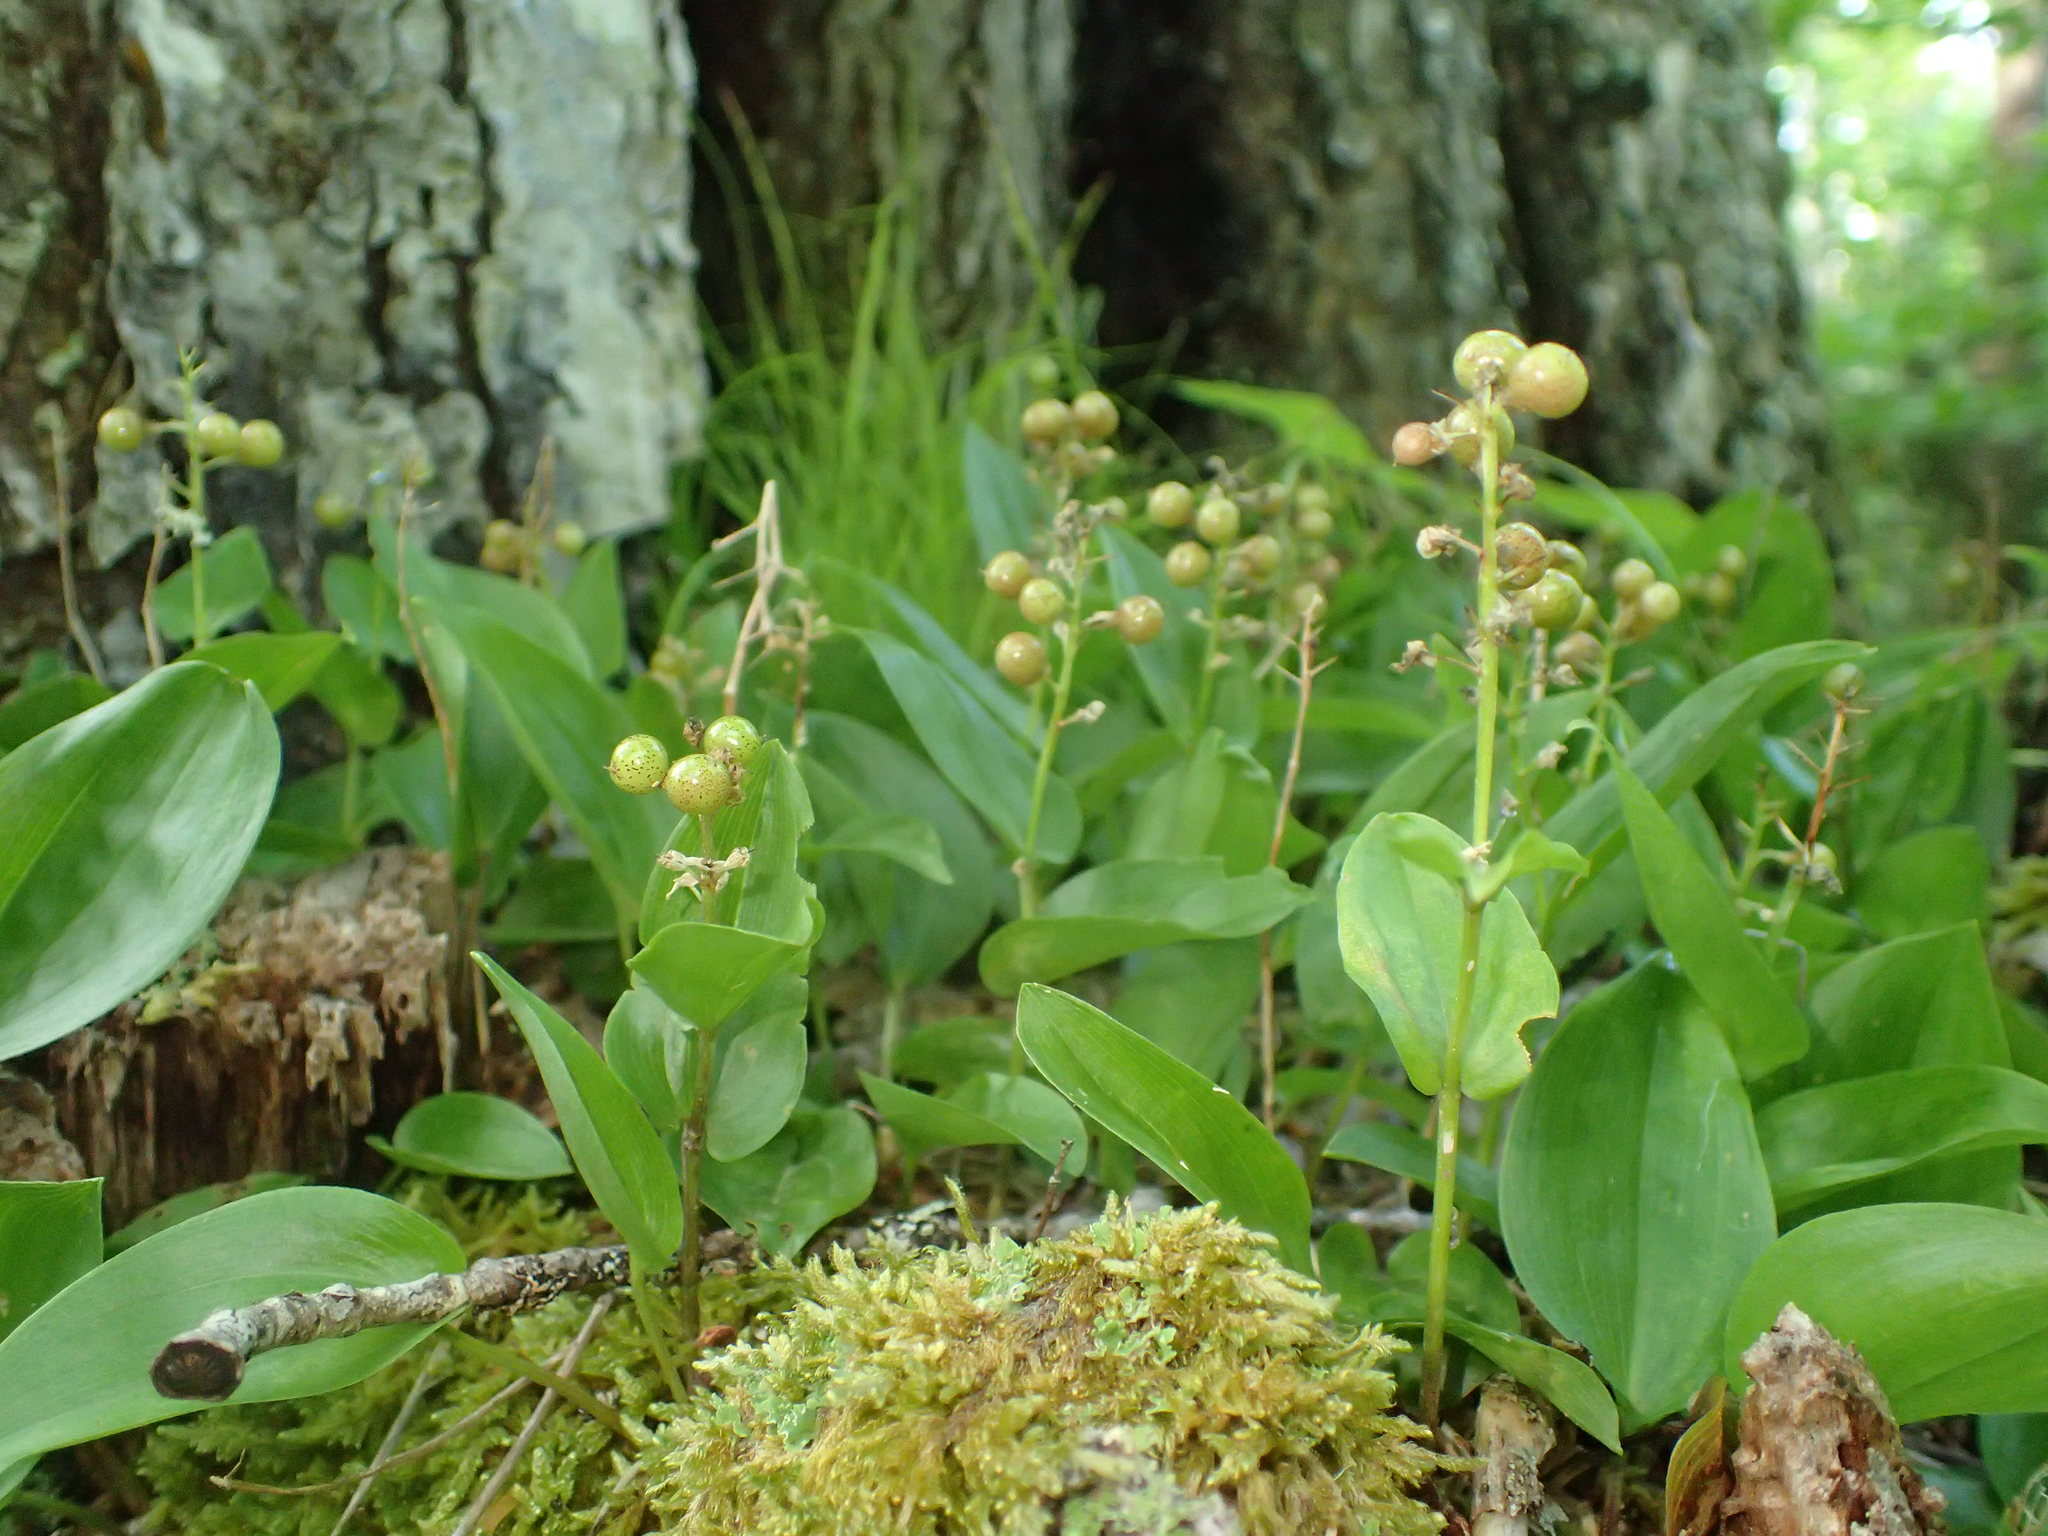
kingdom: Plantae
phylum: Tracheophyta
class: Liliopsida
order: Asparagales
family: Asparagaceae
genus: Maianthemum
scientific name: Maianthemum canadense
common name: False lily-of-the-valley
